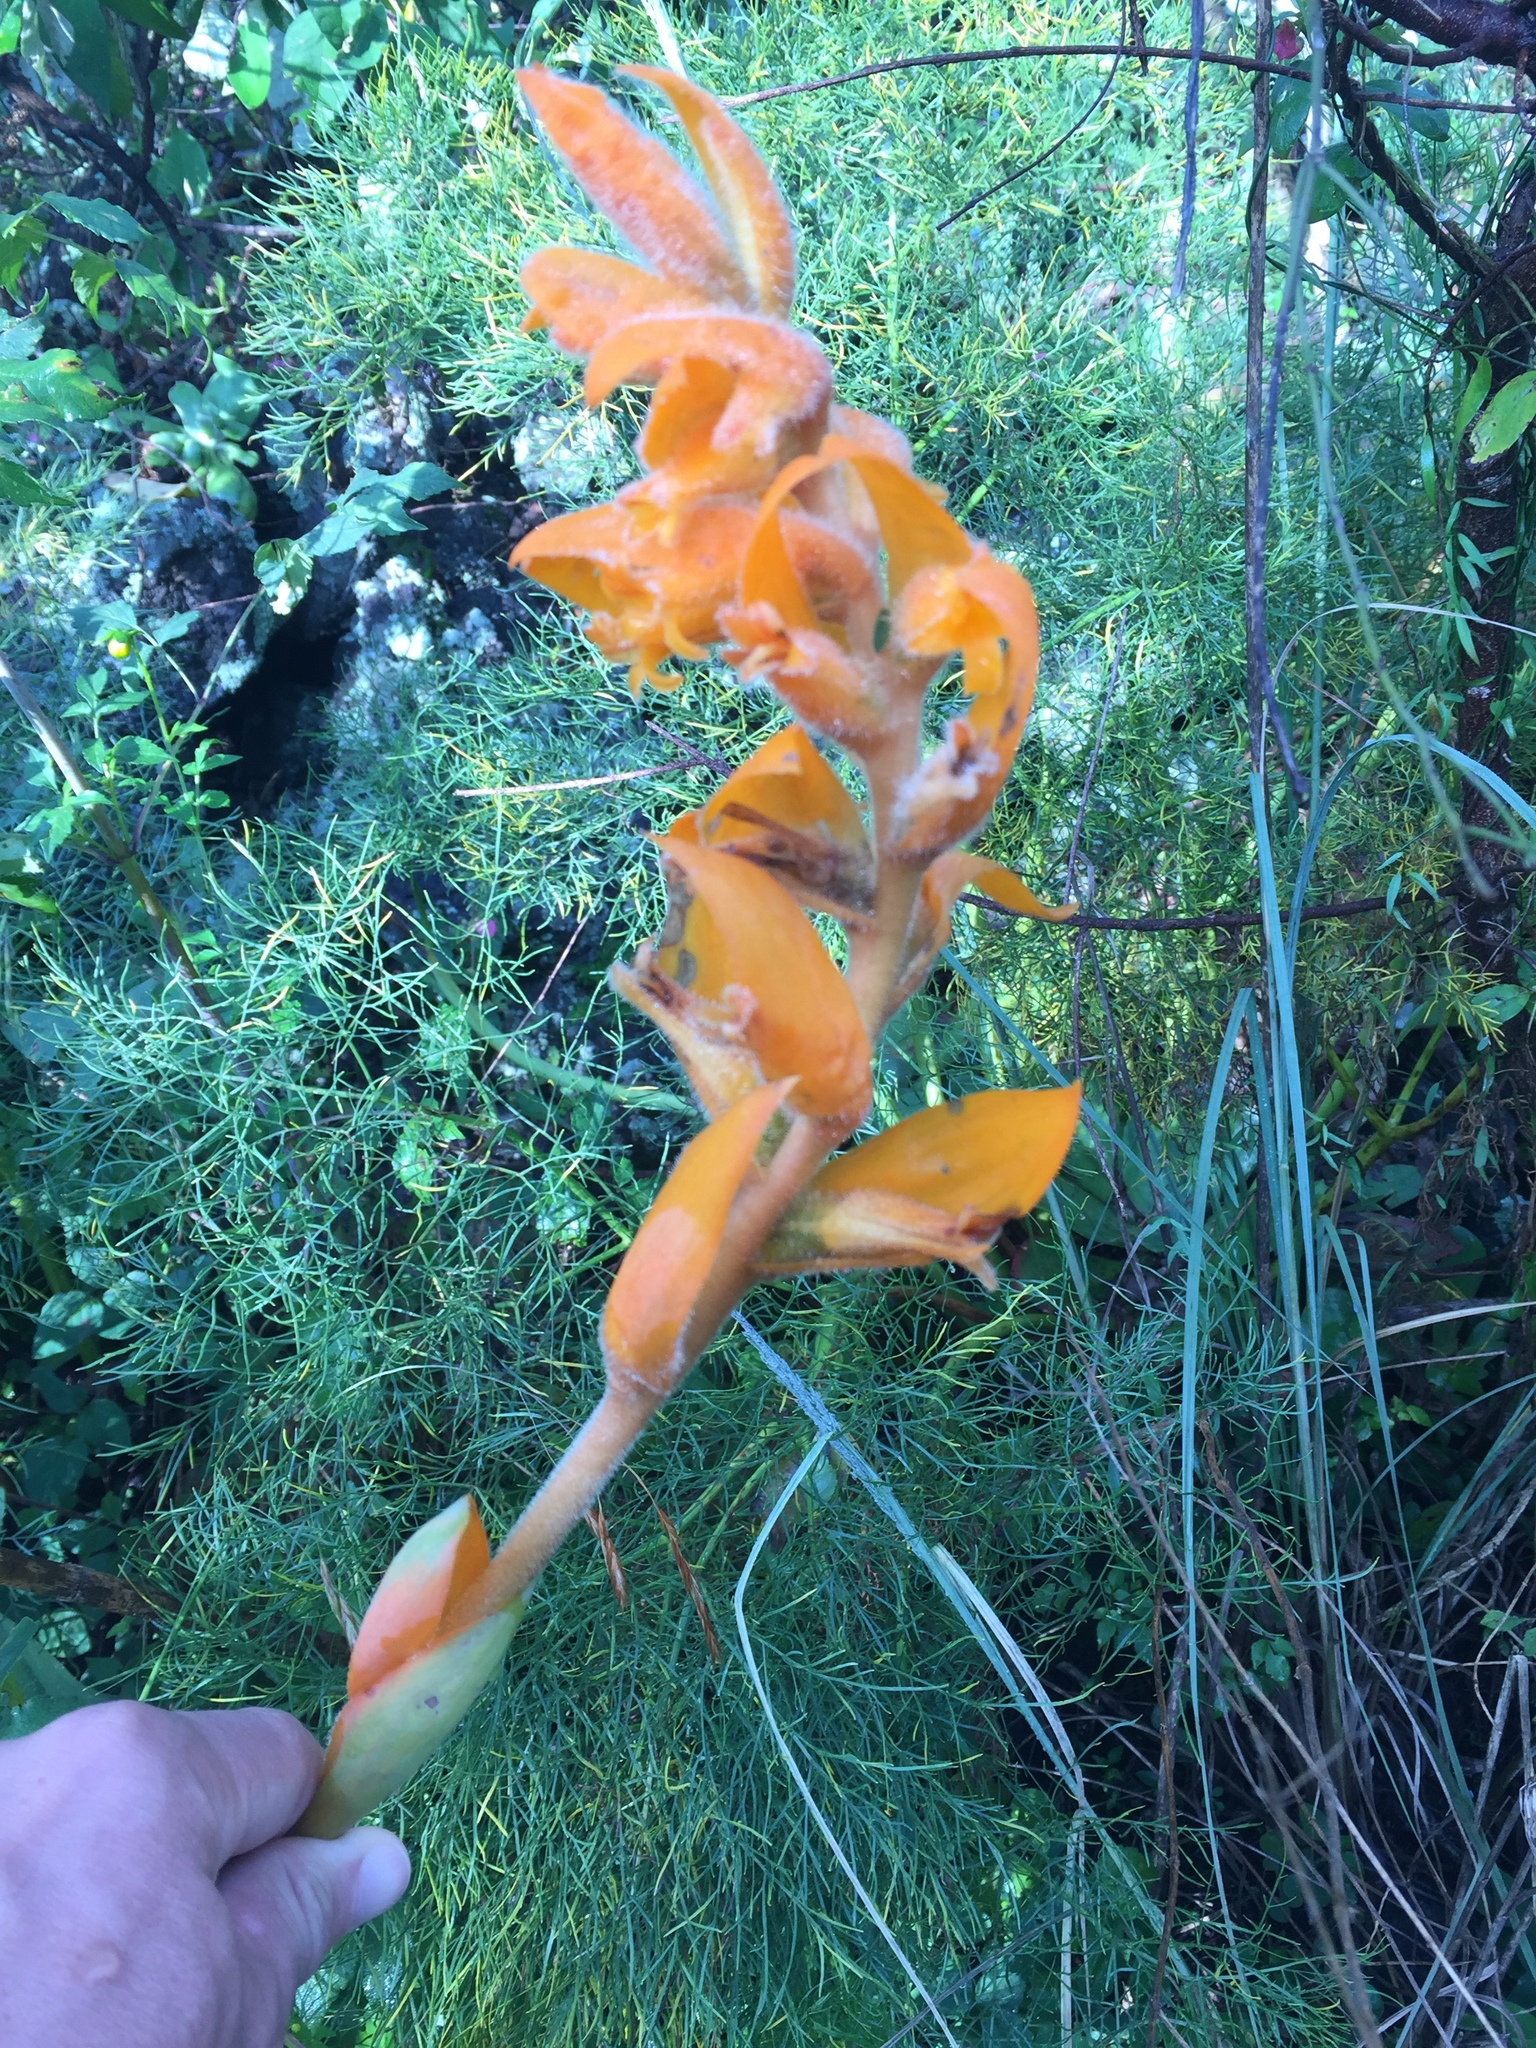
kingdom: Plantae
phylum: Tracheophyta
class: Liliopsida
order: Asparagales
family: Orchidaceae
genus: Dichromanthus
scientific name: Dichromanthus aurantiacus
